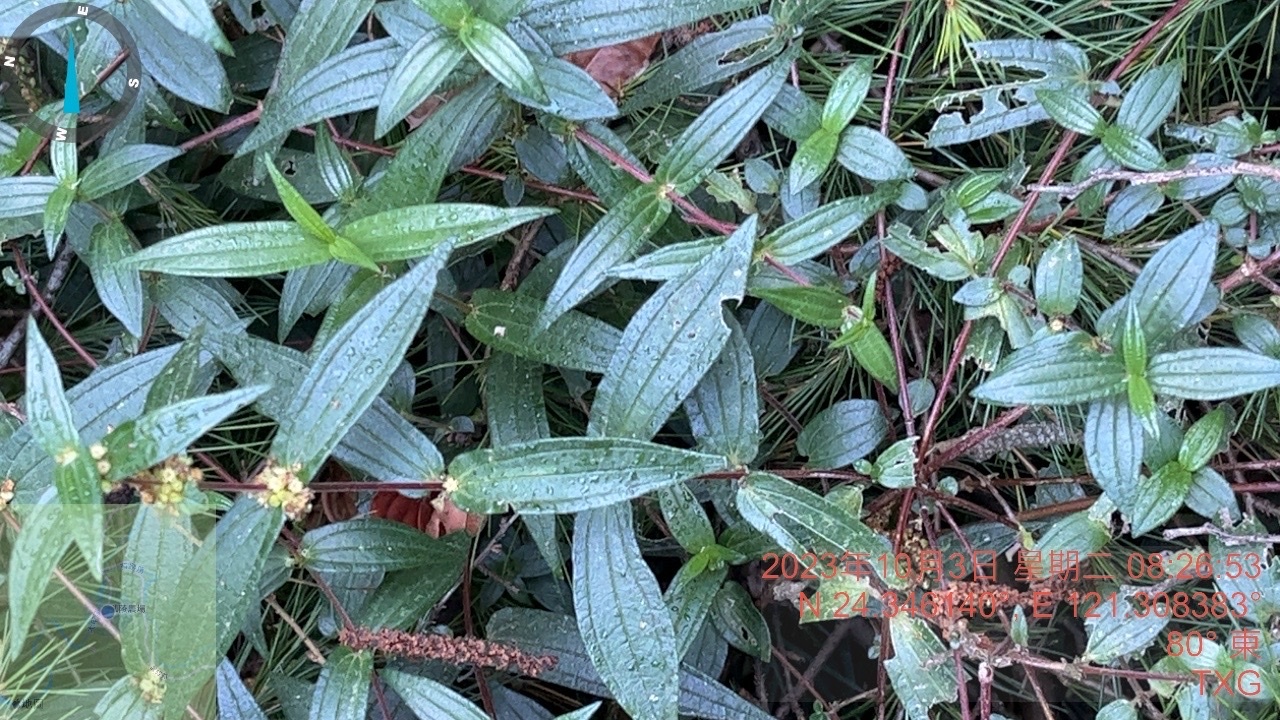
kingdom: Plantae
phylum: Tracheophyta
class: Magnoliopsida
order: Rosales
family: Urticaceae
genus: Gonostegia
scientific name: Gonostegia triandra
